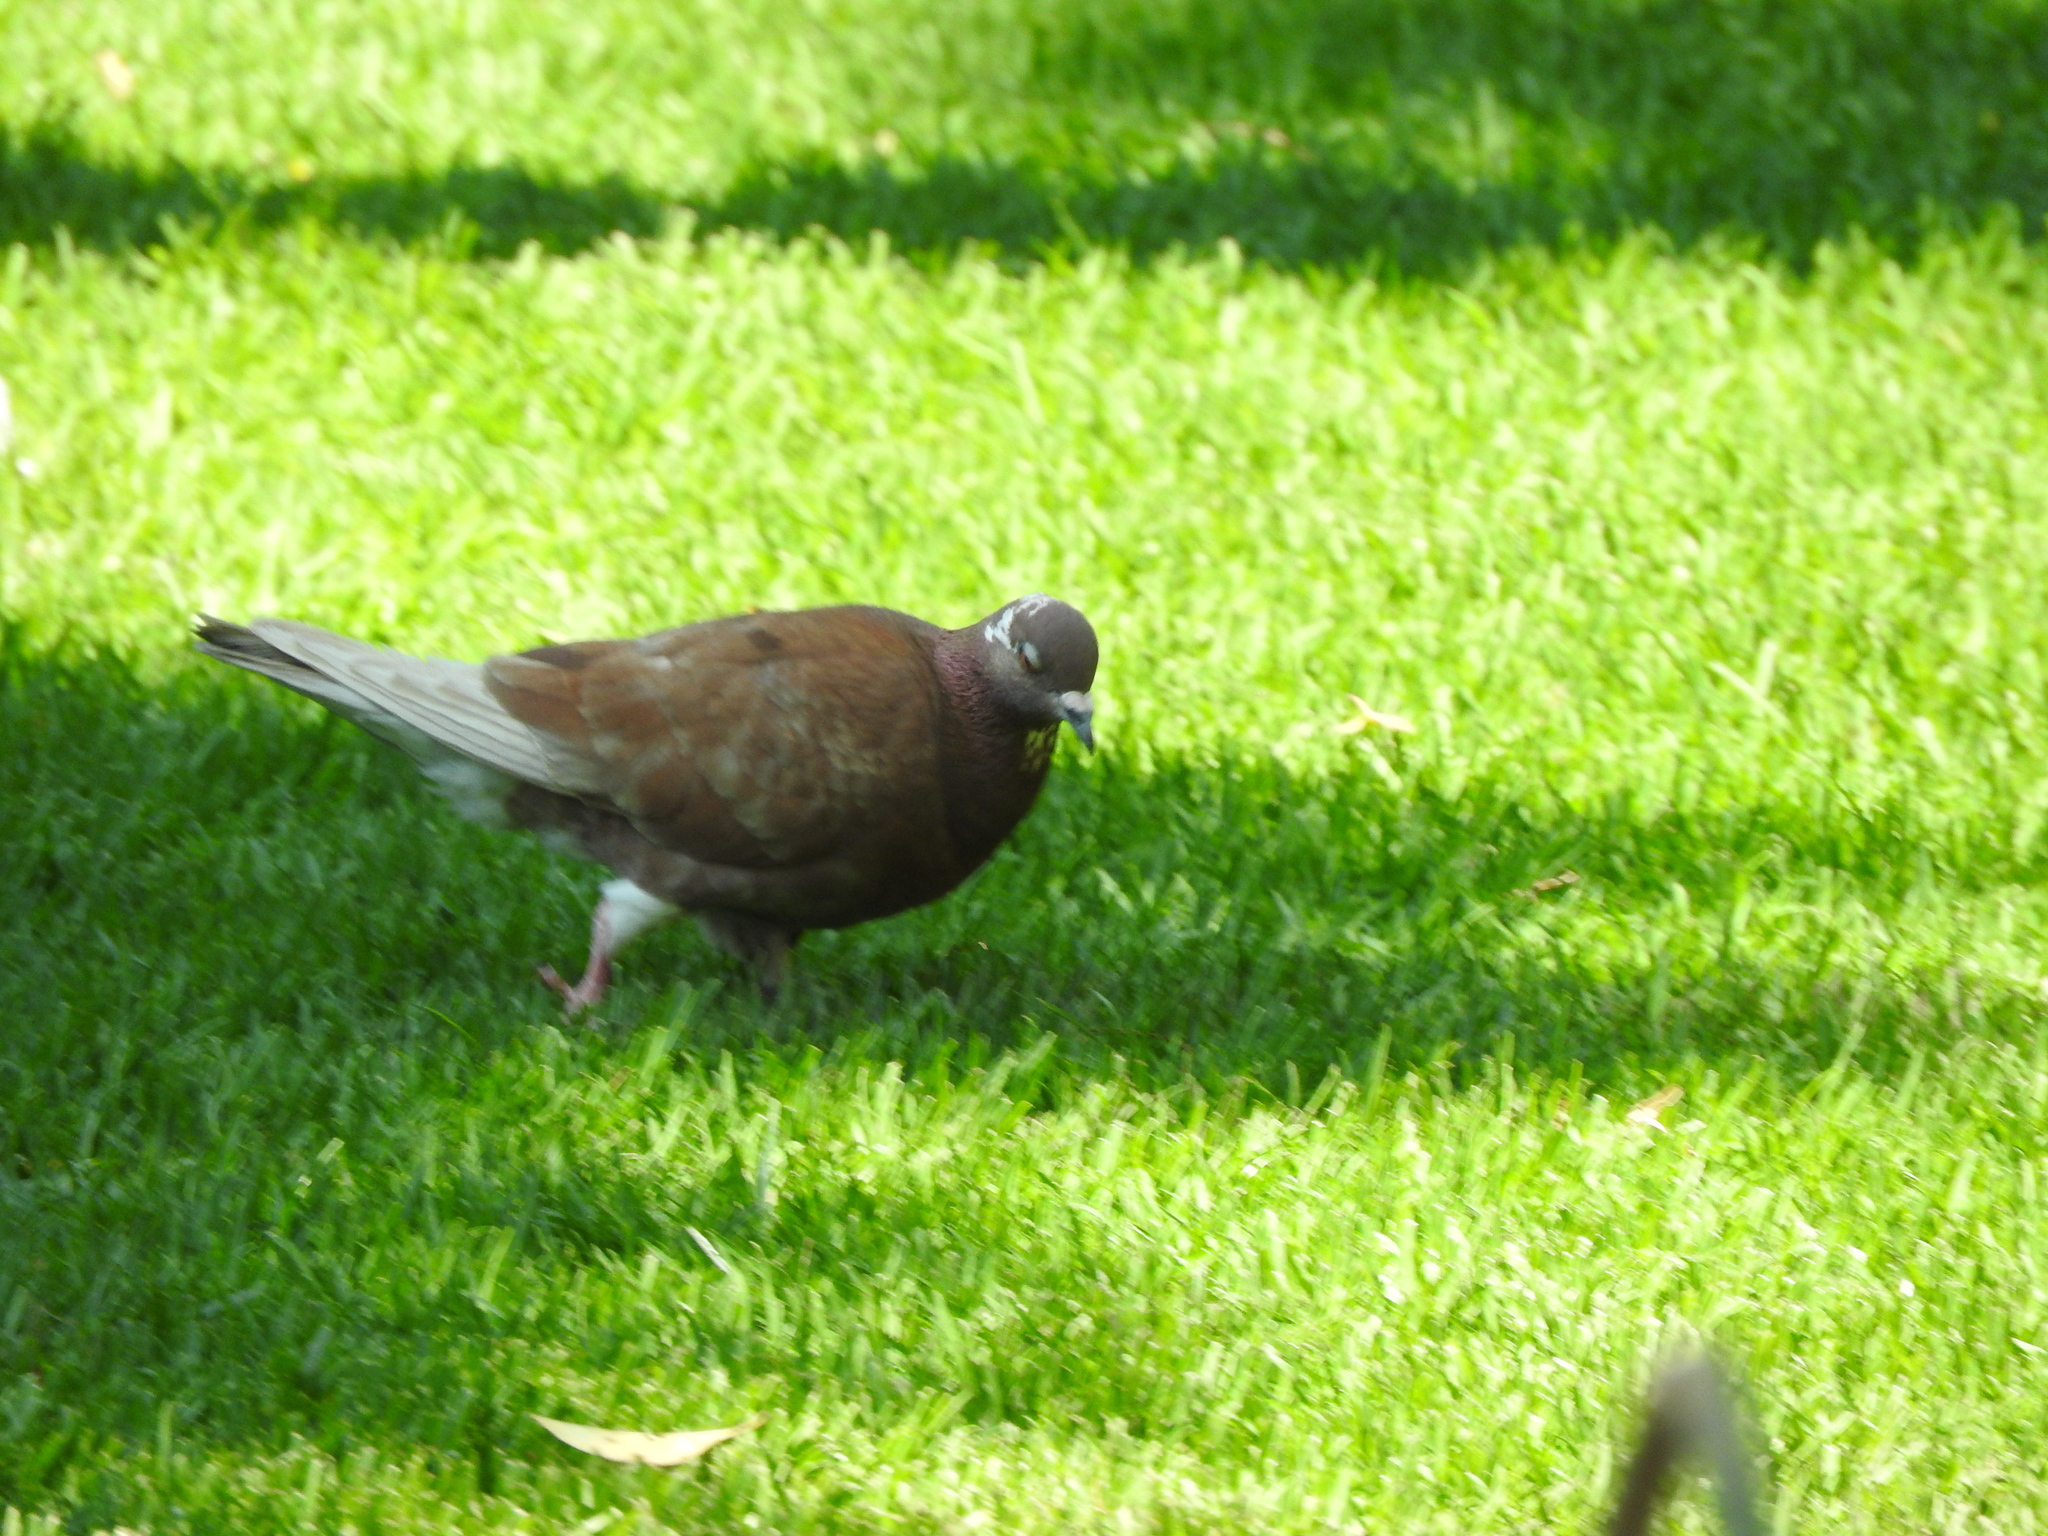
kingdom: Animalia
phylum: Chordata
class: Aves
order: Columbiformes
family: Columbidae
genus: Columba
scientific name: Columba livia
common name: Rock pigeon
